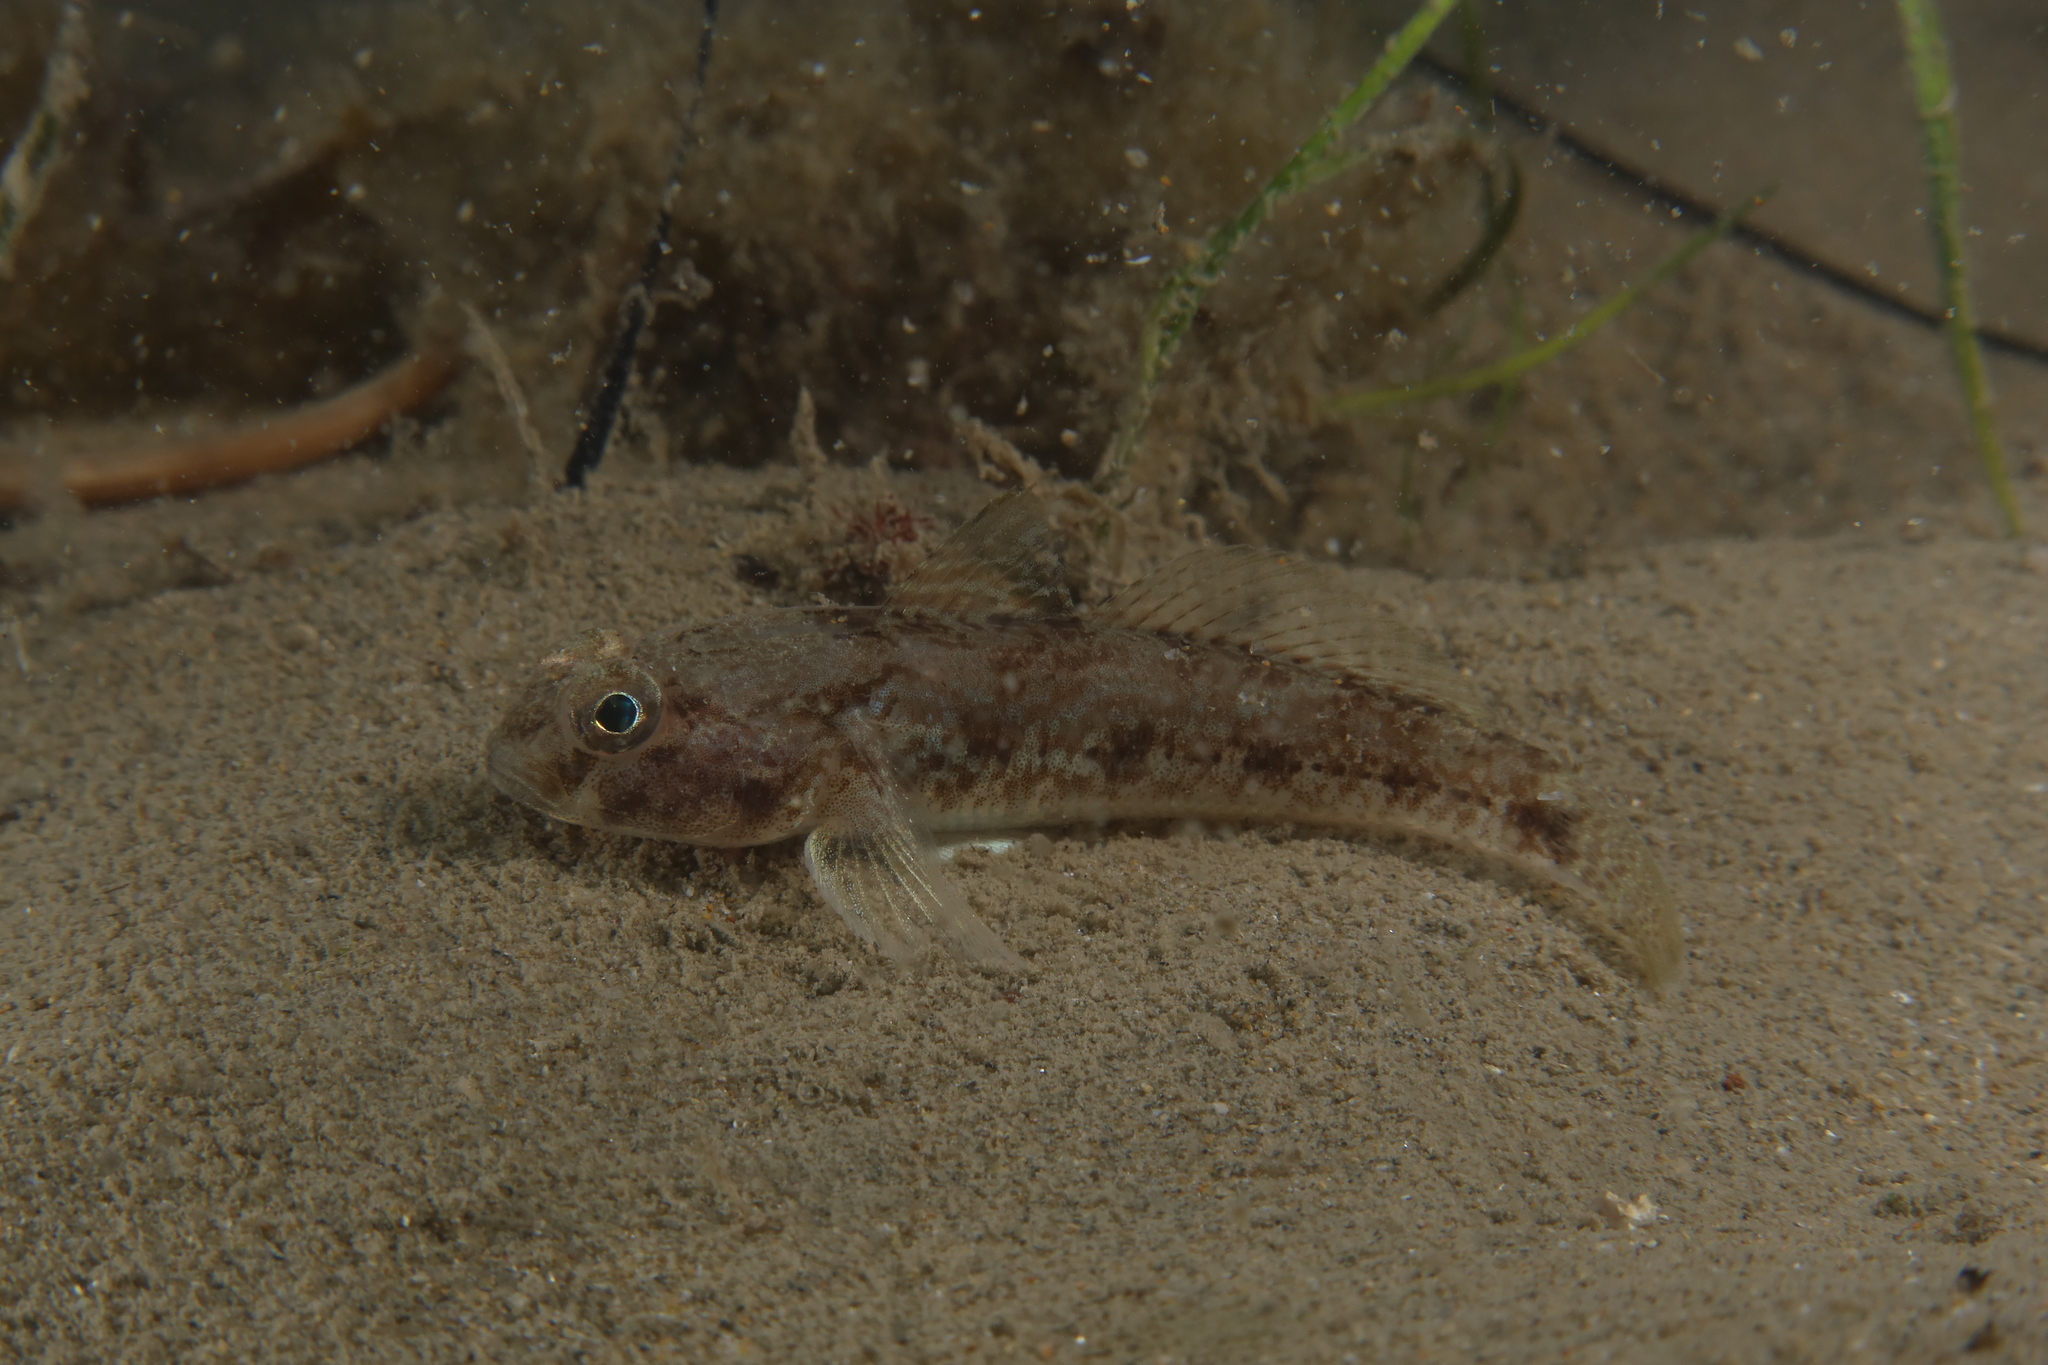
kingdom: Animalia
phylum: Chordata
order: Perciformes
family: Gobiidae
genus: Gobius
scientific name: Gobius niger
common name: Black goby
